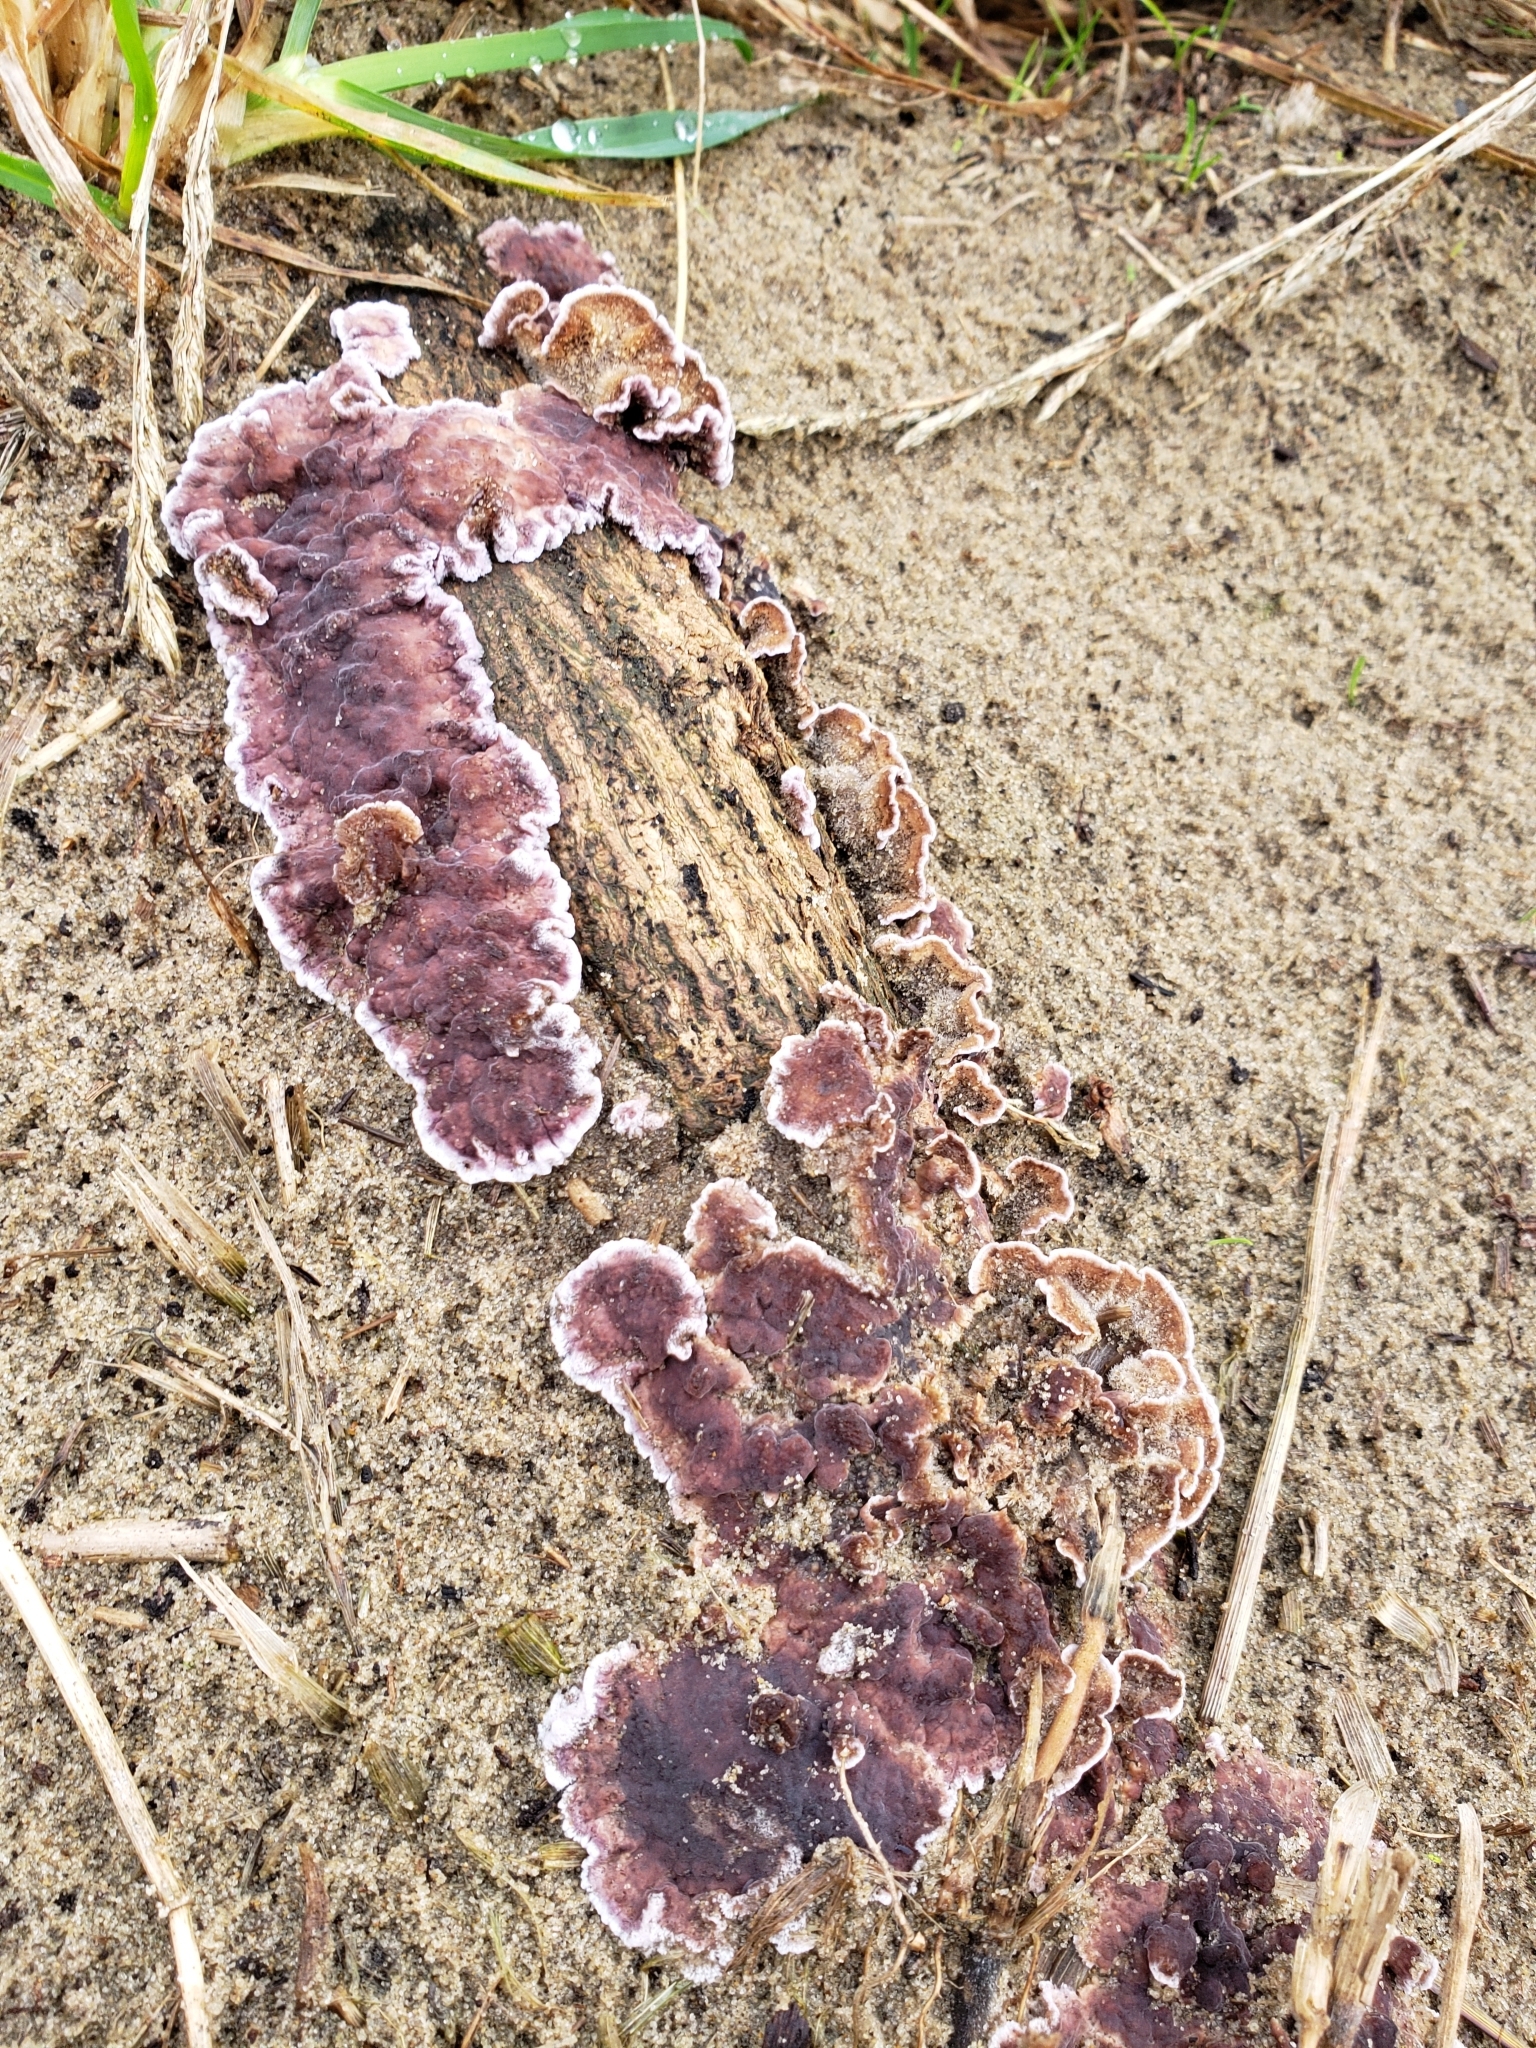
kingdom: Fungi
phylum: Basidiomycota
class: Agaricomycetes
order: Agaricales
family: Cyphellaceae
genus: Chondrostereum
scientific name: Chondrostereum purpureum
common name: Silver leaf disease
